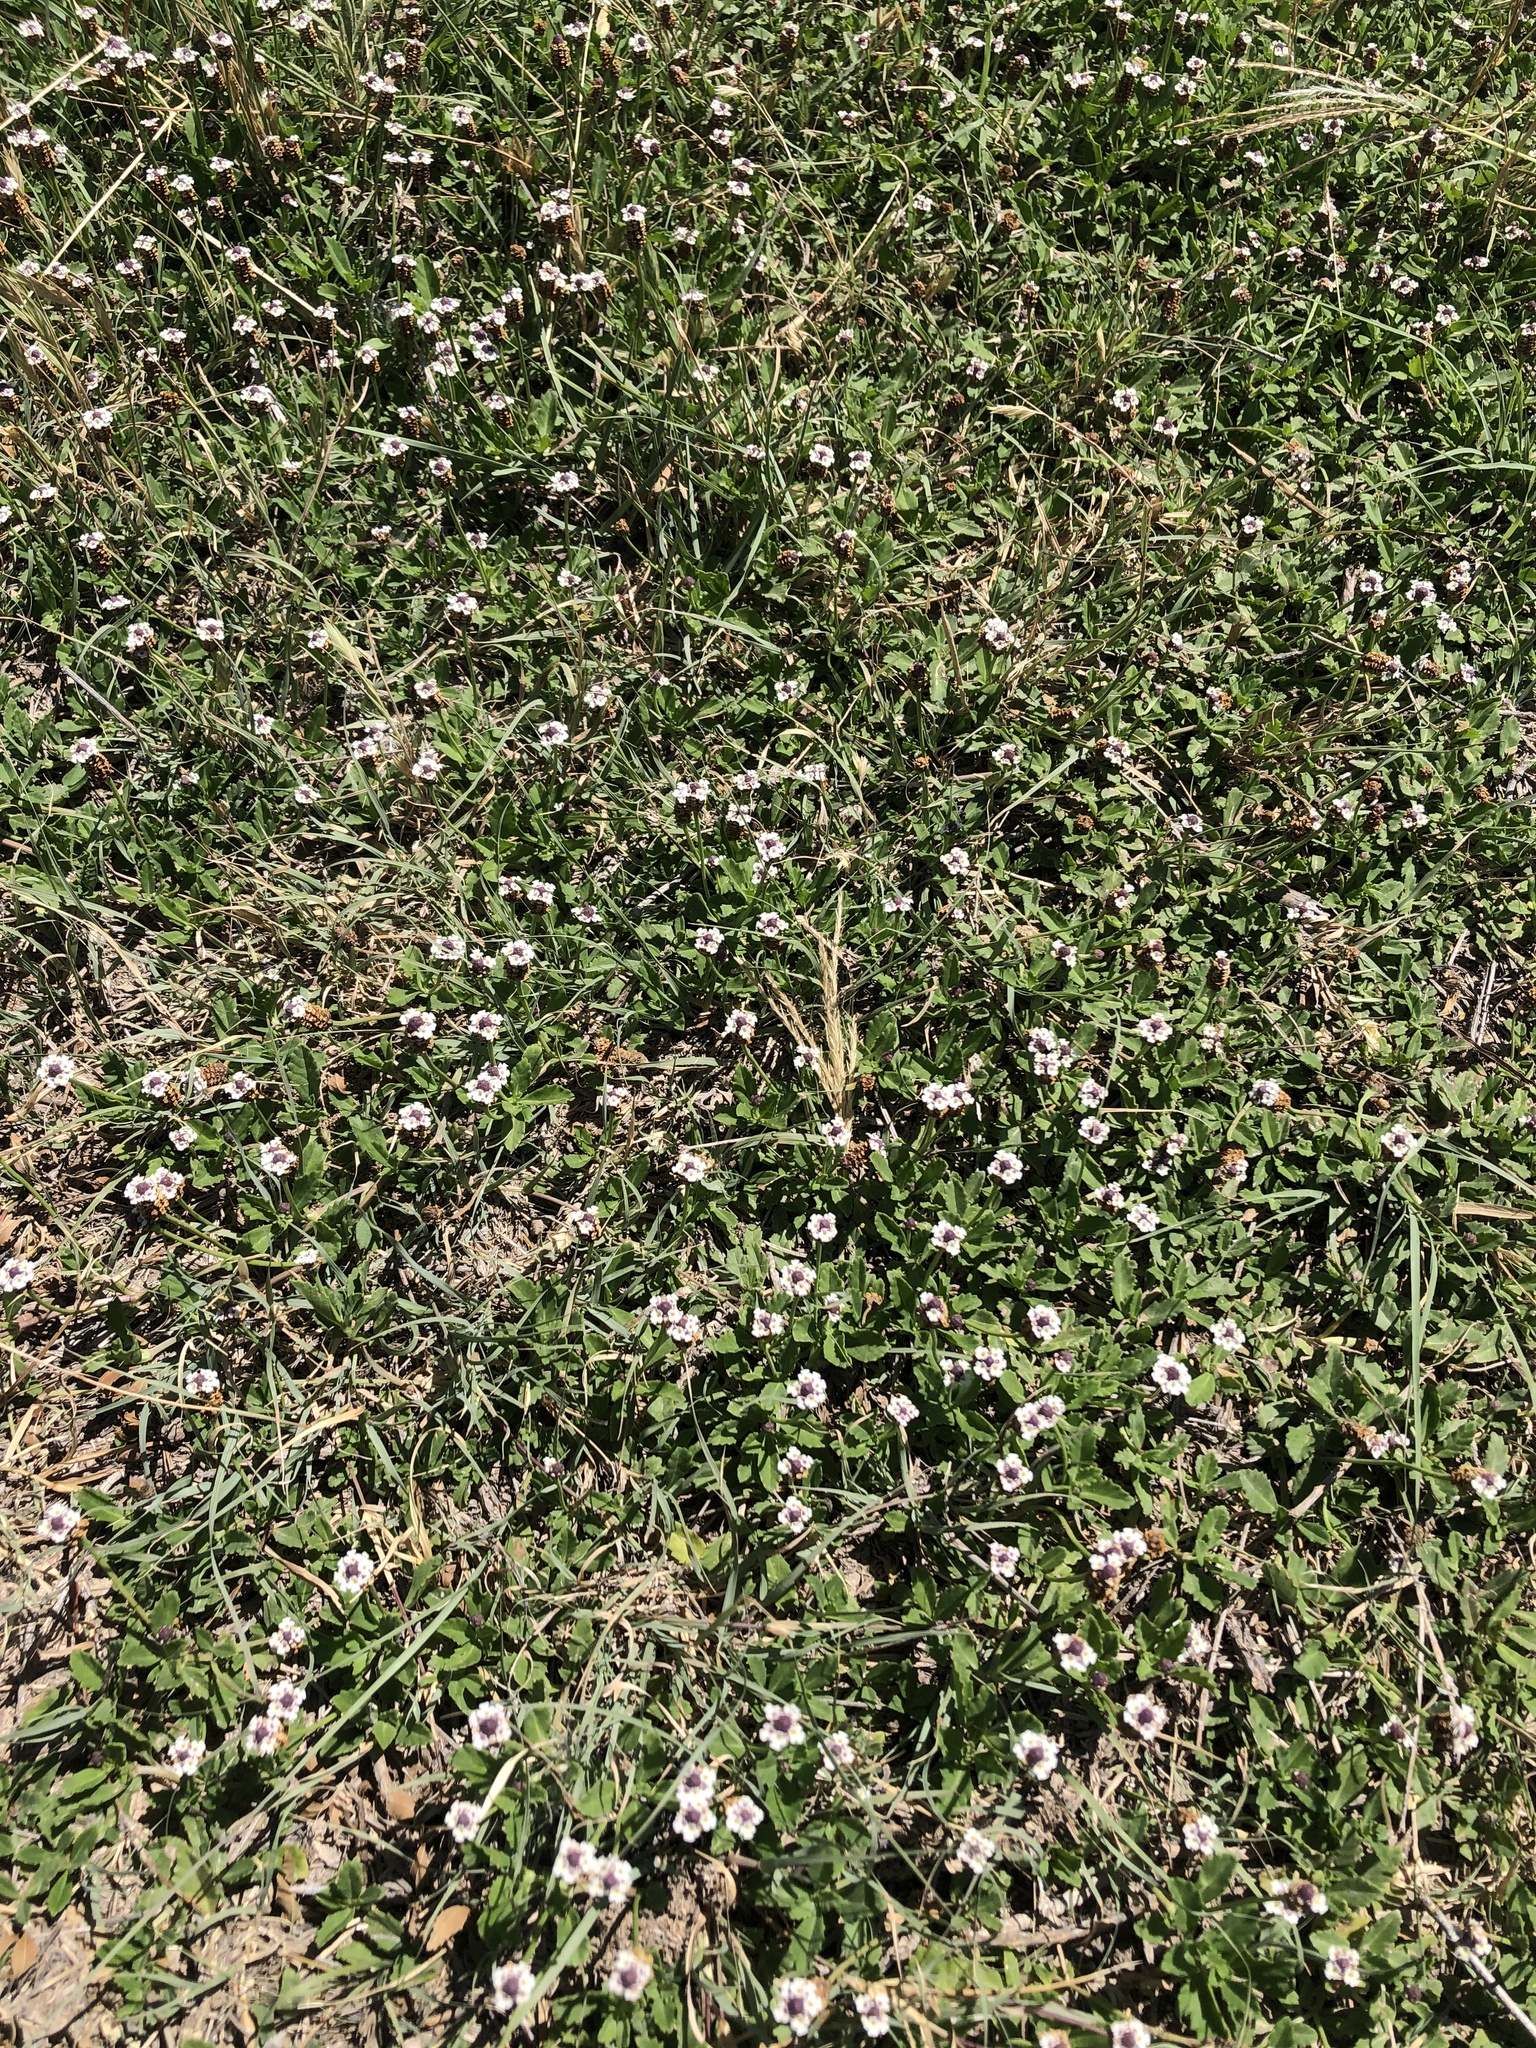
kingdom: Plantae
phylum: Tracheophyta
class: Magnoliopsida
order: Lamiales
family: Verbenaceae
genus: Phyla
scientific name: Phyla nodiflora
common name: Frogfruit
